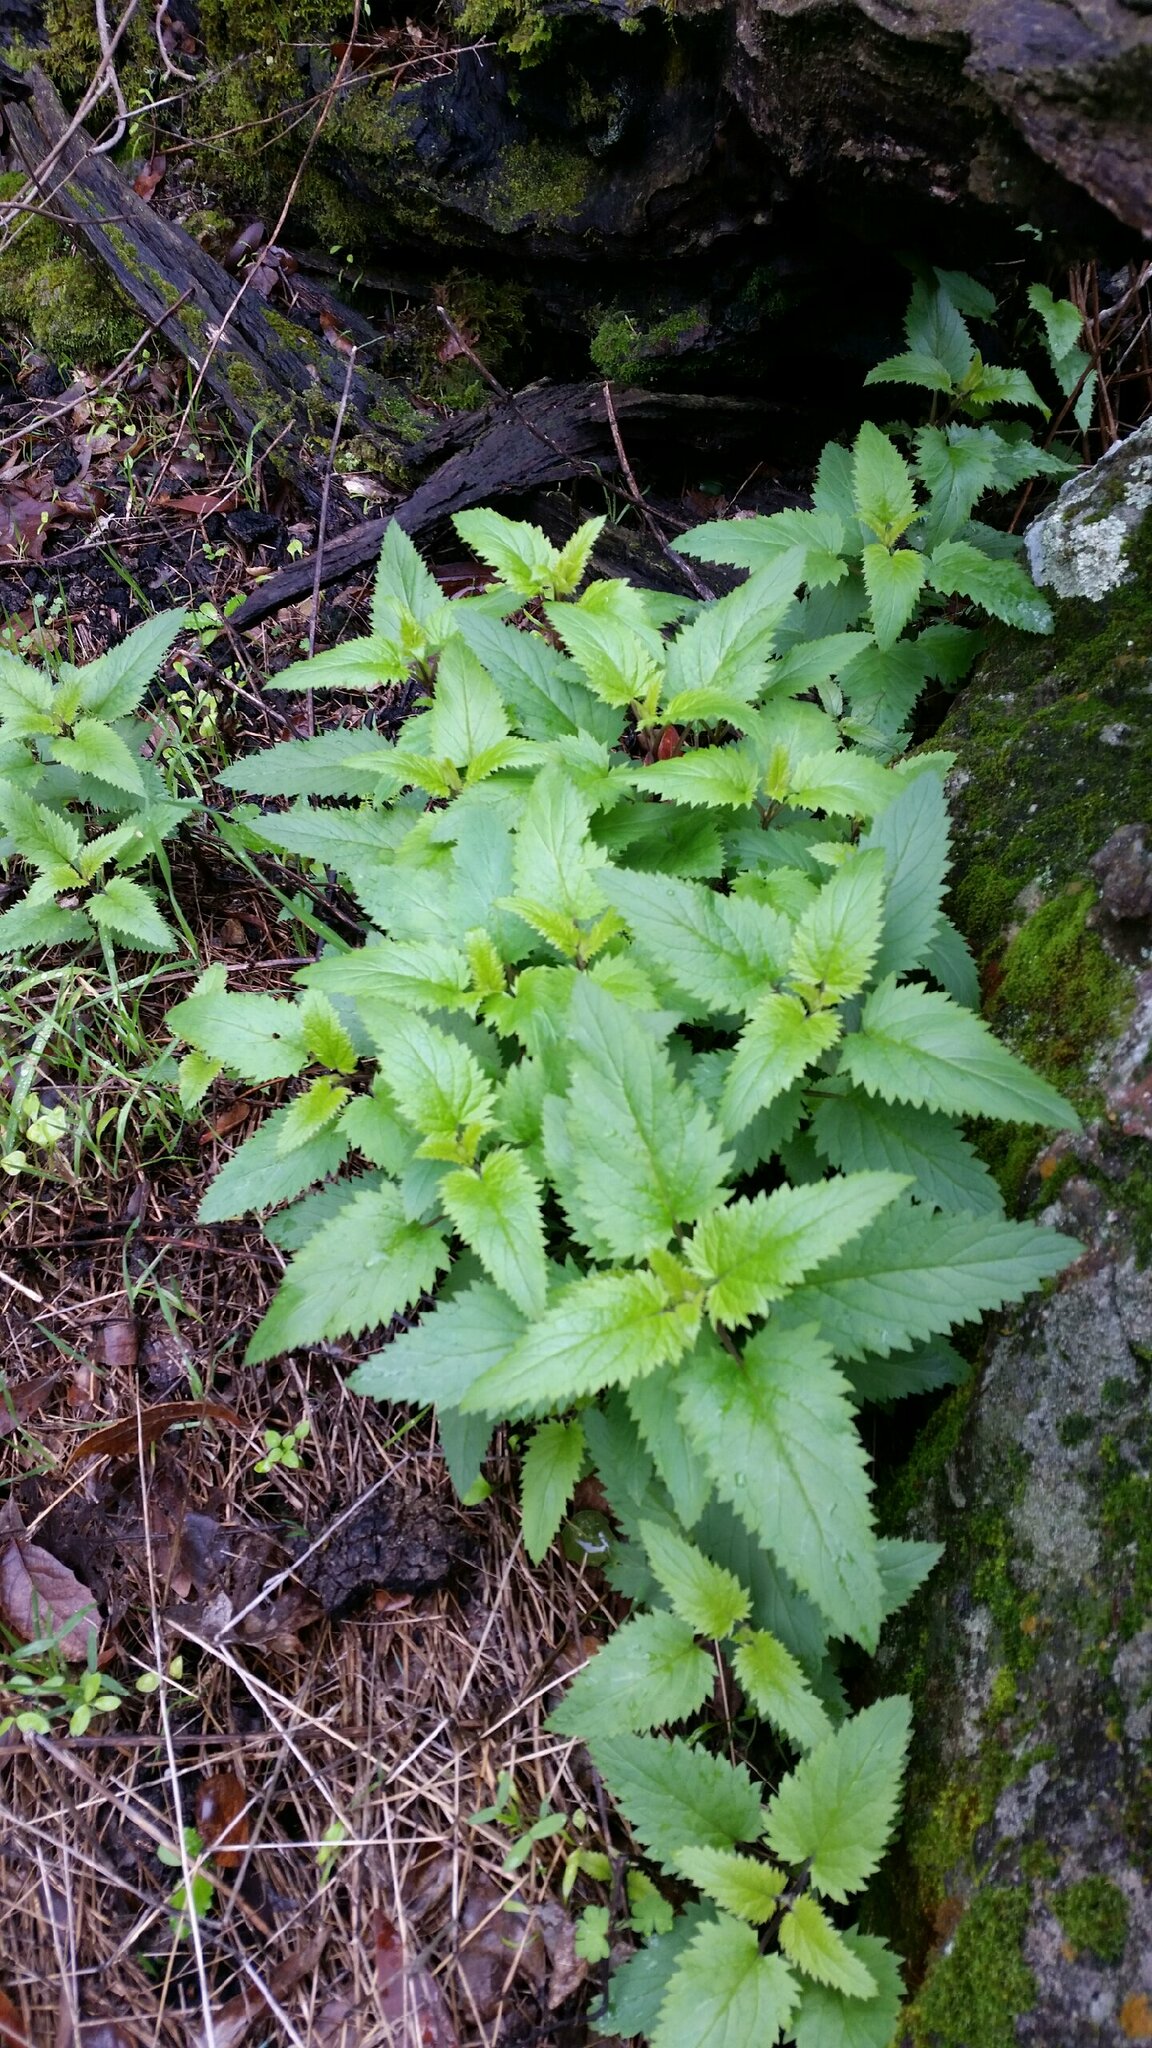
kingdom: Plantae
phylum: Tracheophyta
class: Magnoliopsida
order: Lamiales
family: Scrophulariaceae
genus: Scrophularia
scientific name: Scrophularia californica
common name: California figwort
